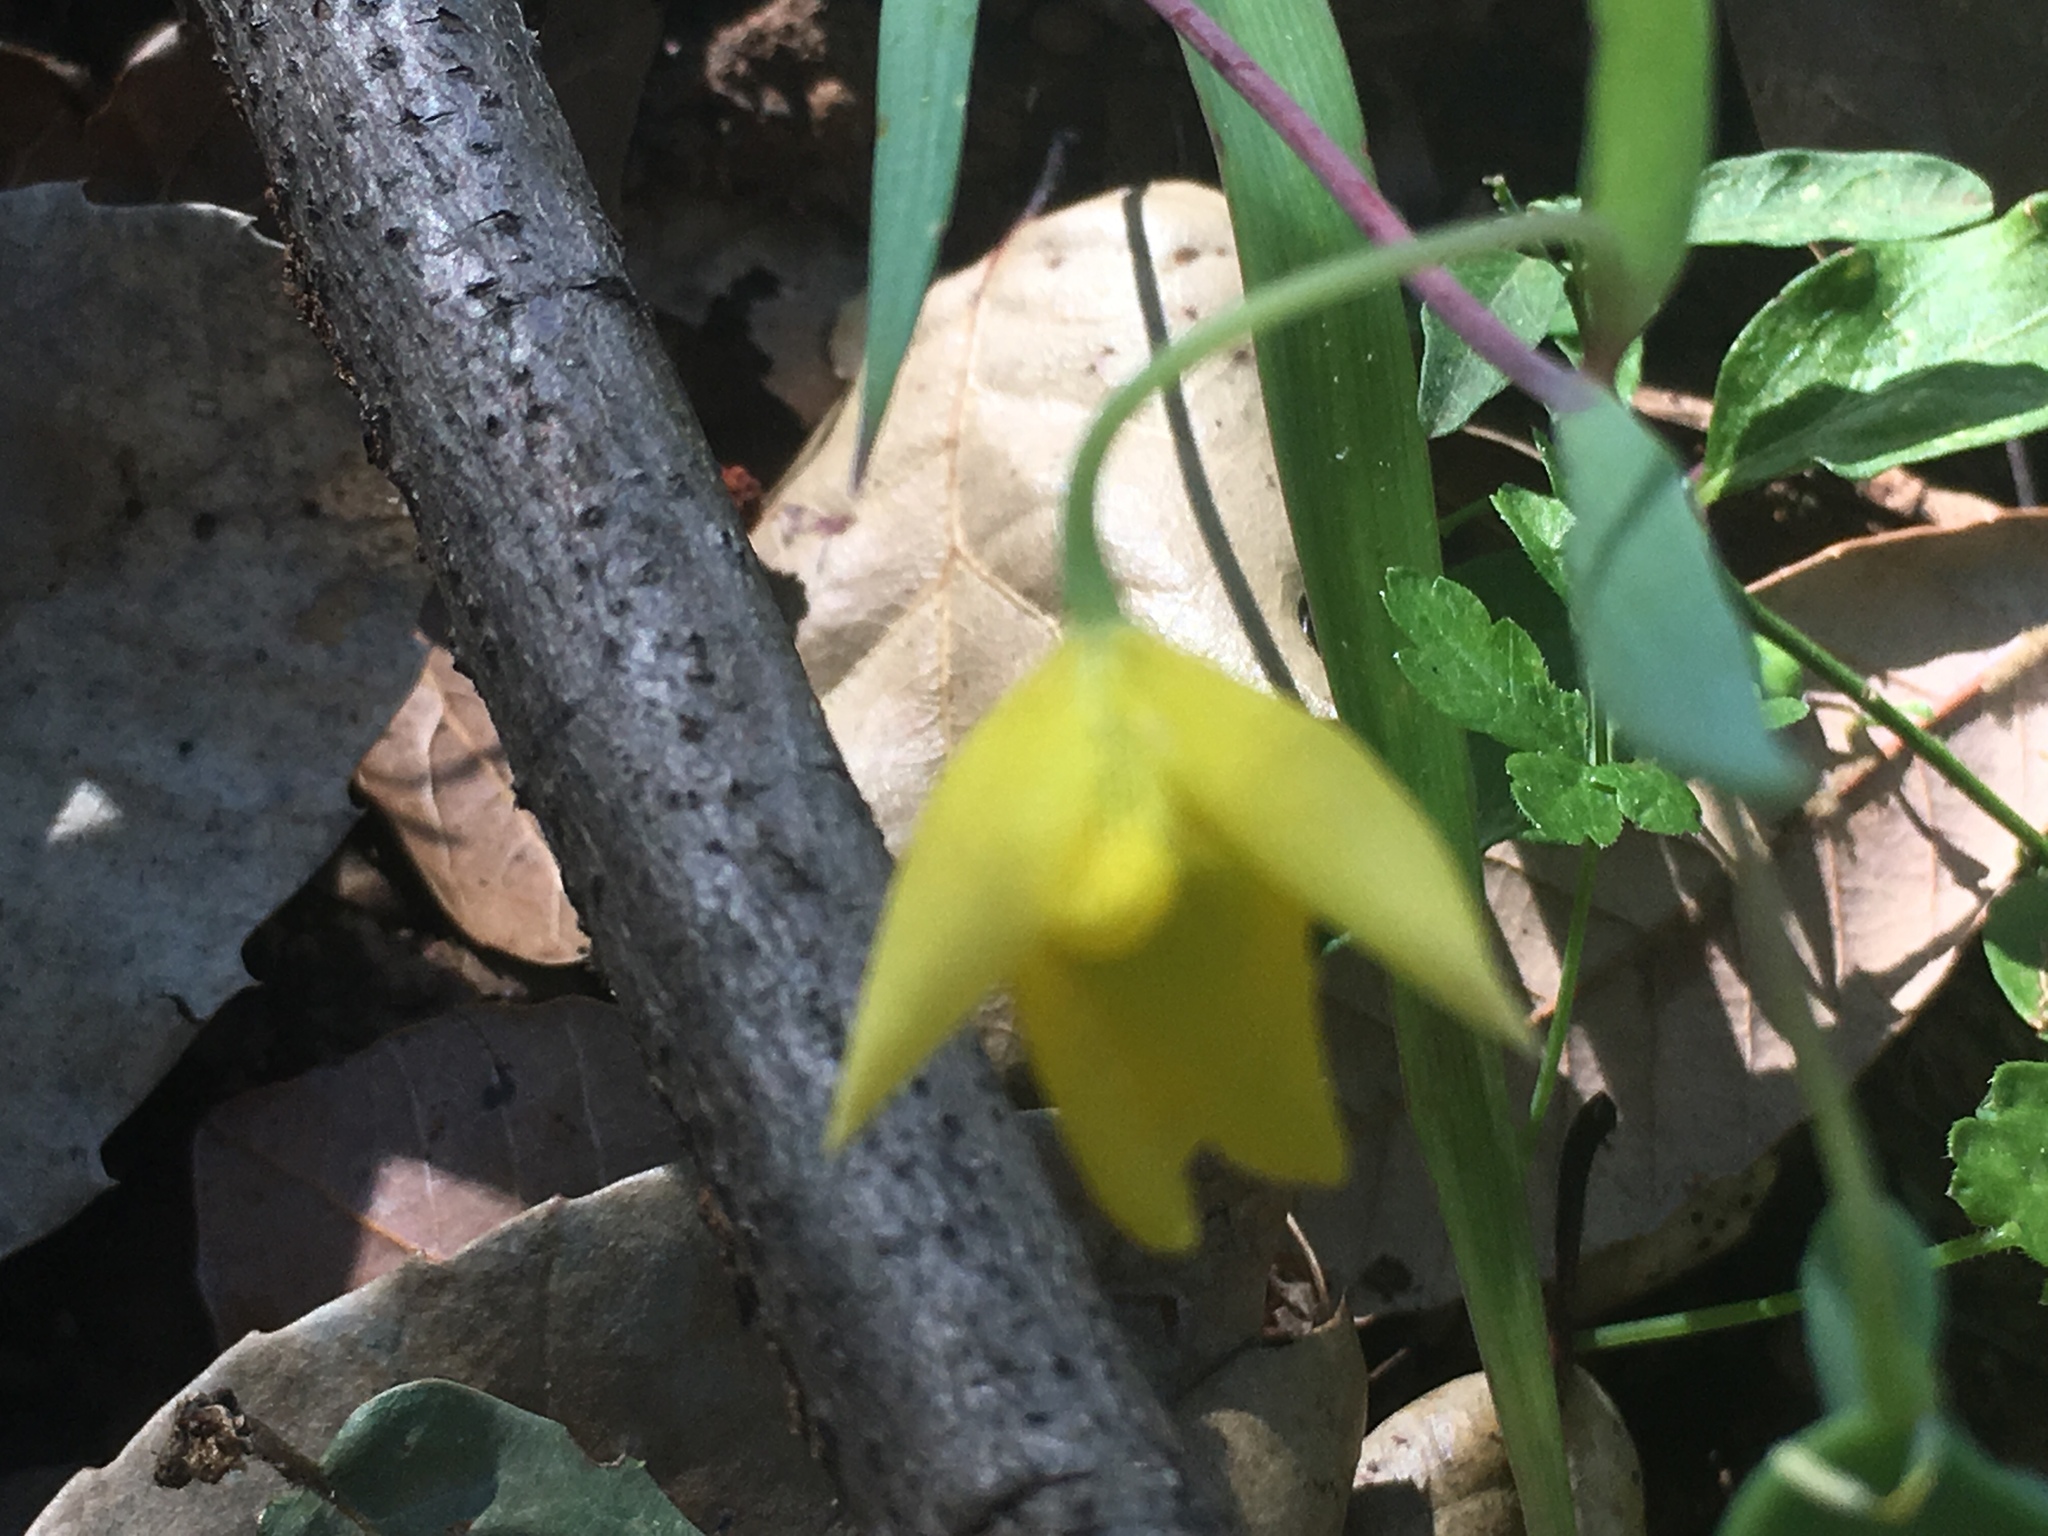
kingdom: Plantae
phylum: Tracheophyta
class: Liliopsida
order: Liliales
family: Liliaceae
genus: Calochortus
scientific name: Calochortus amabilis
